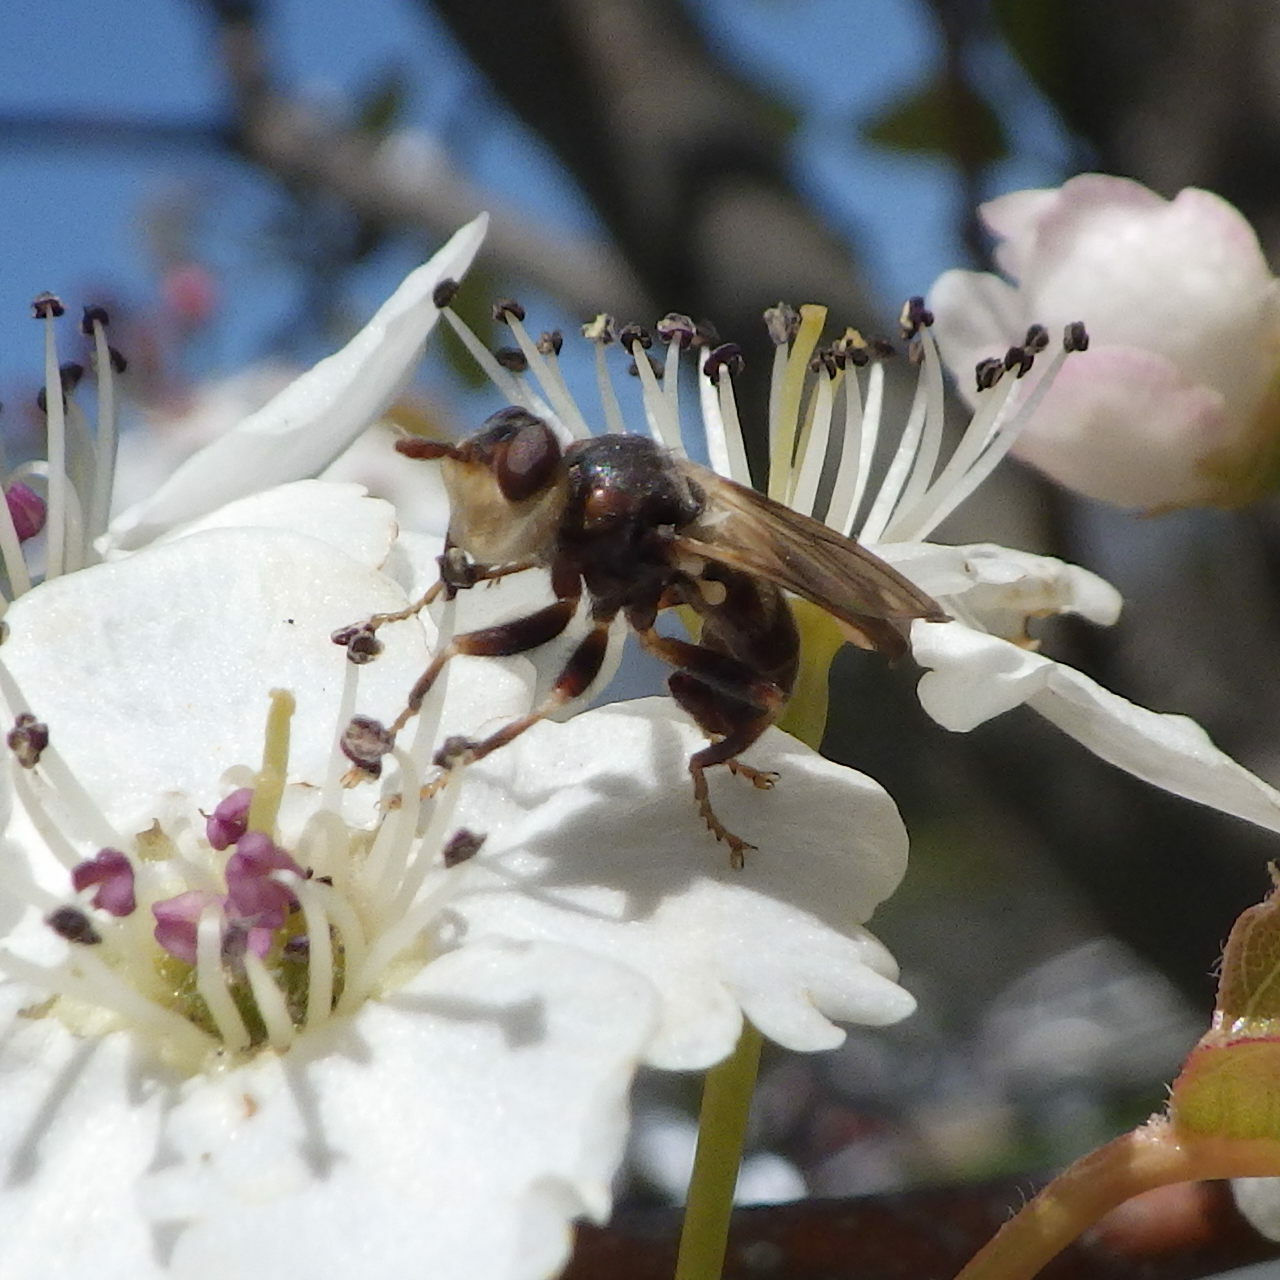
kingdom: Animalia
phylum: Arthropoda
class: Insecta
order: Diptera
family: Conopidae
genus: Myopa
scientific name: Myopa vesiculosa
